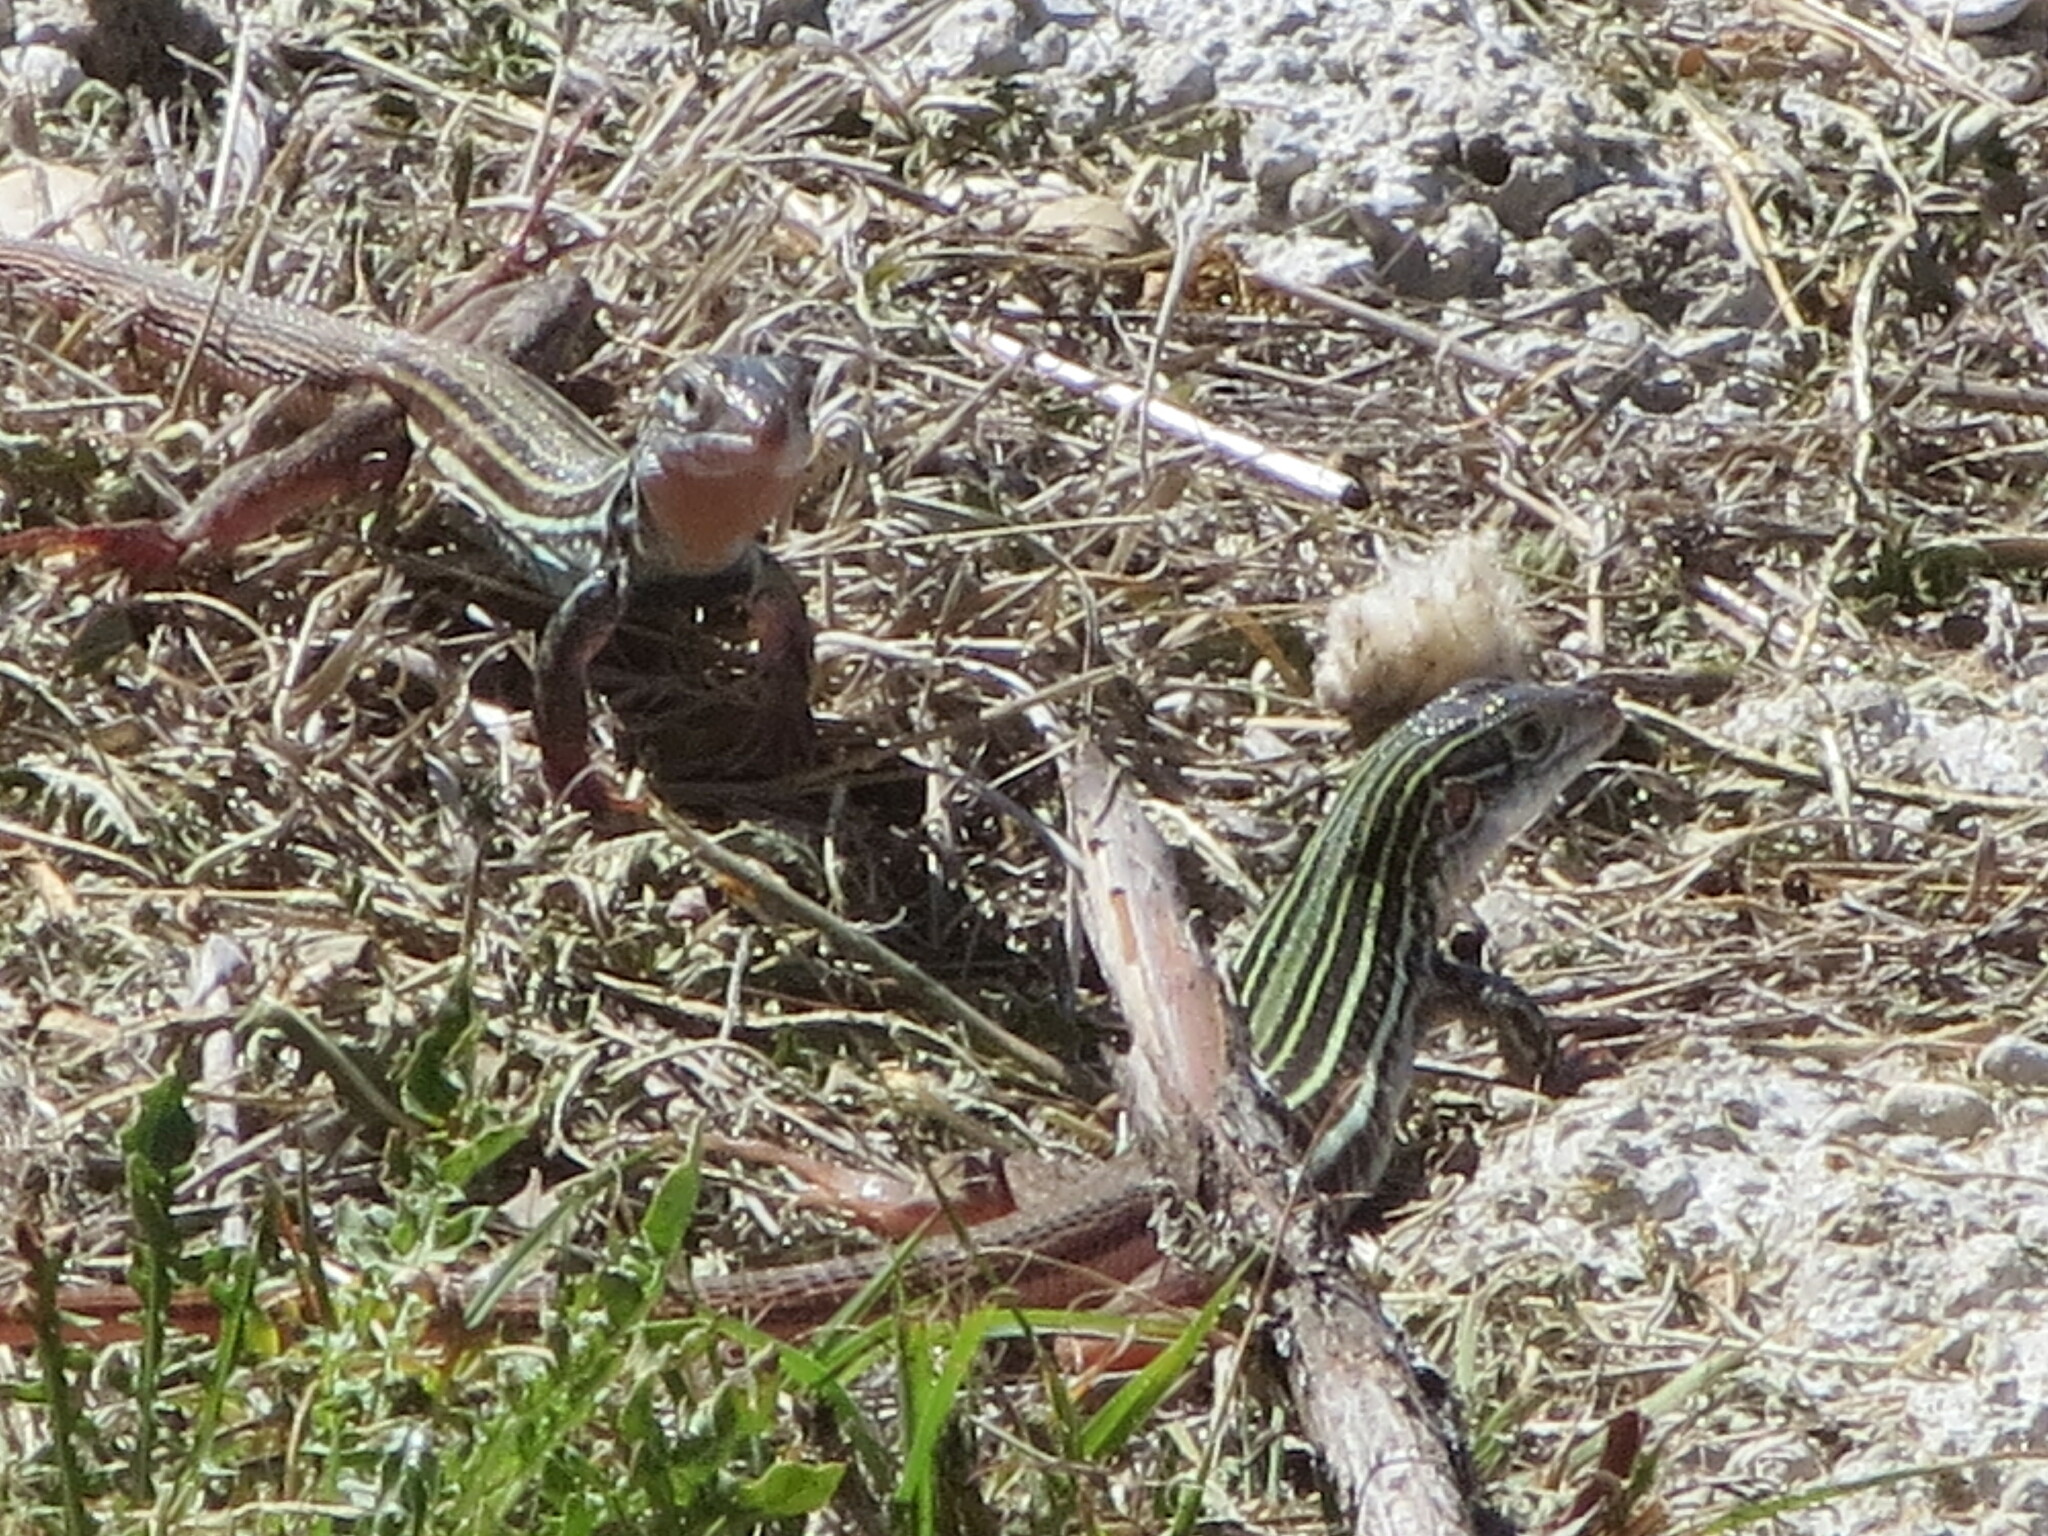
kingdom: Animalia
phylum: Chordata
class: Squamata
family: Teiidae
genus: Aspidoscelis
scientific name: Aspidoscelis gularis
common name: Eastern spotted whiptail
